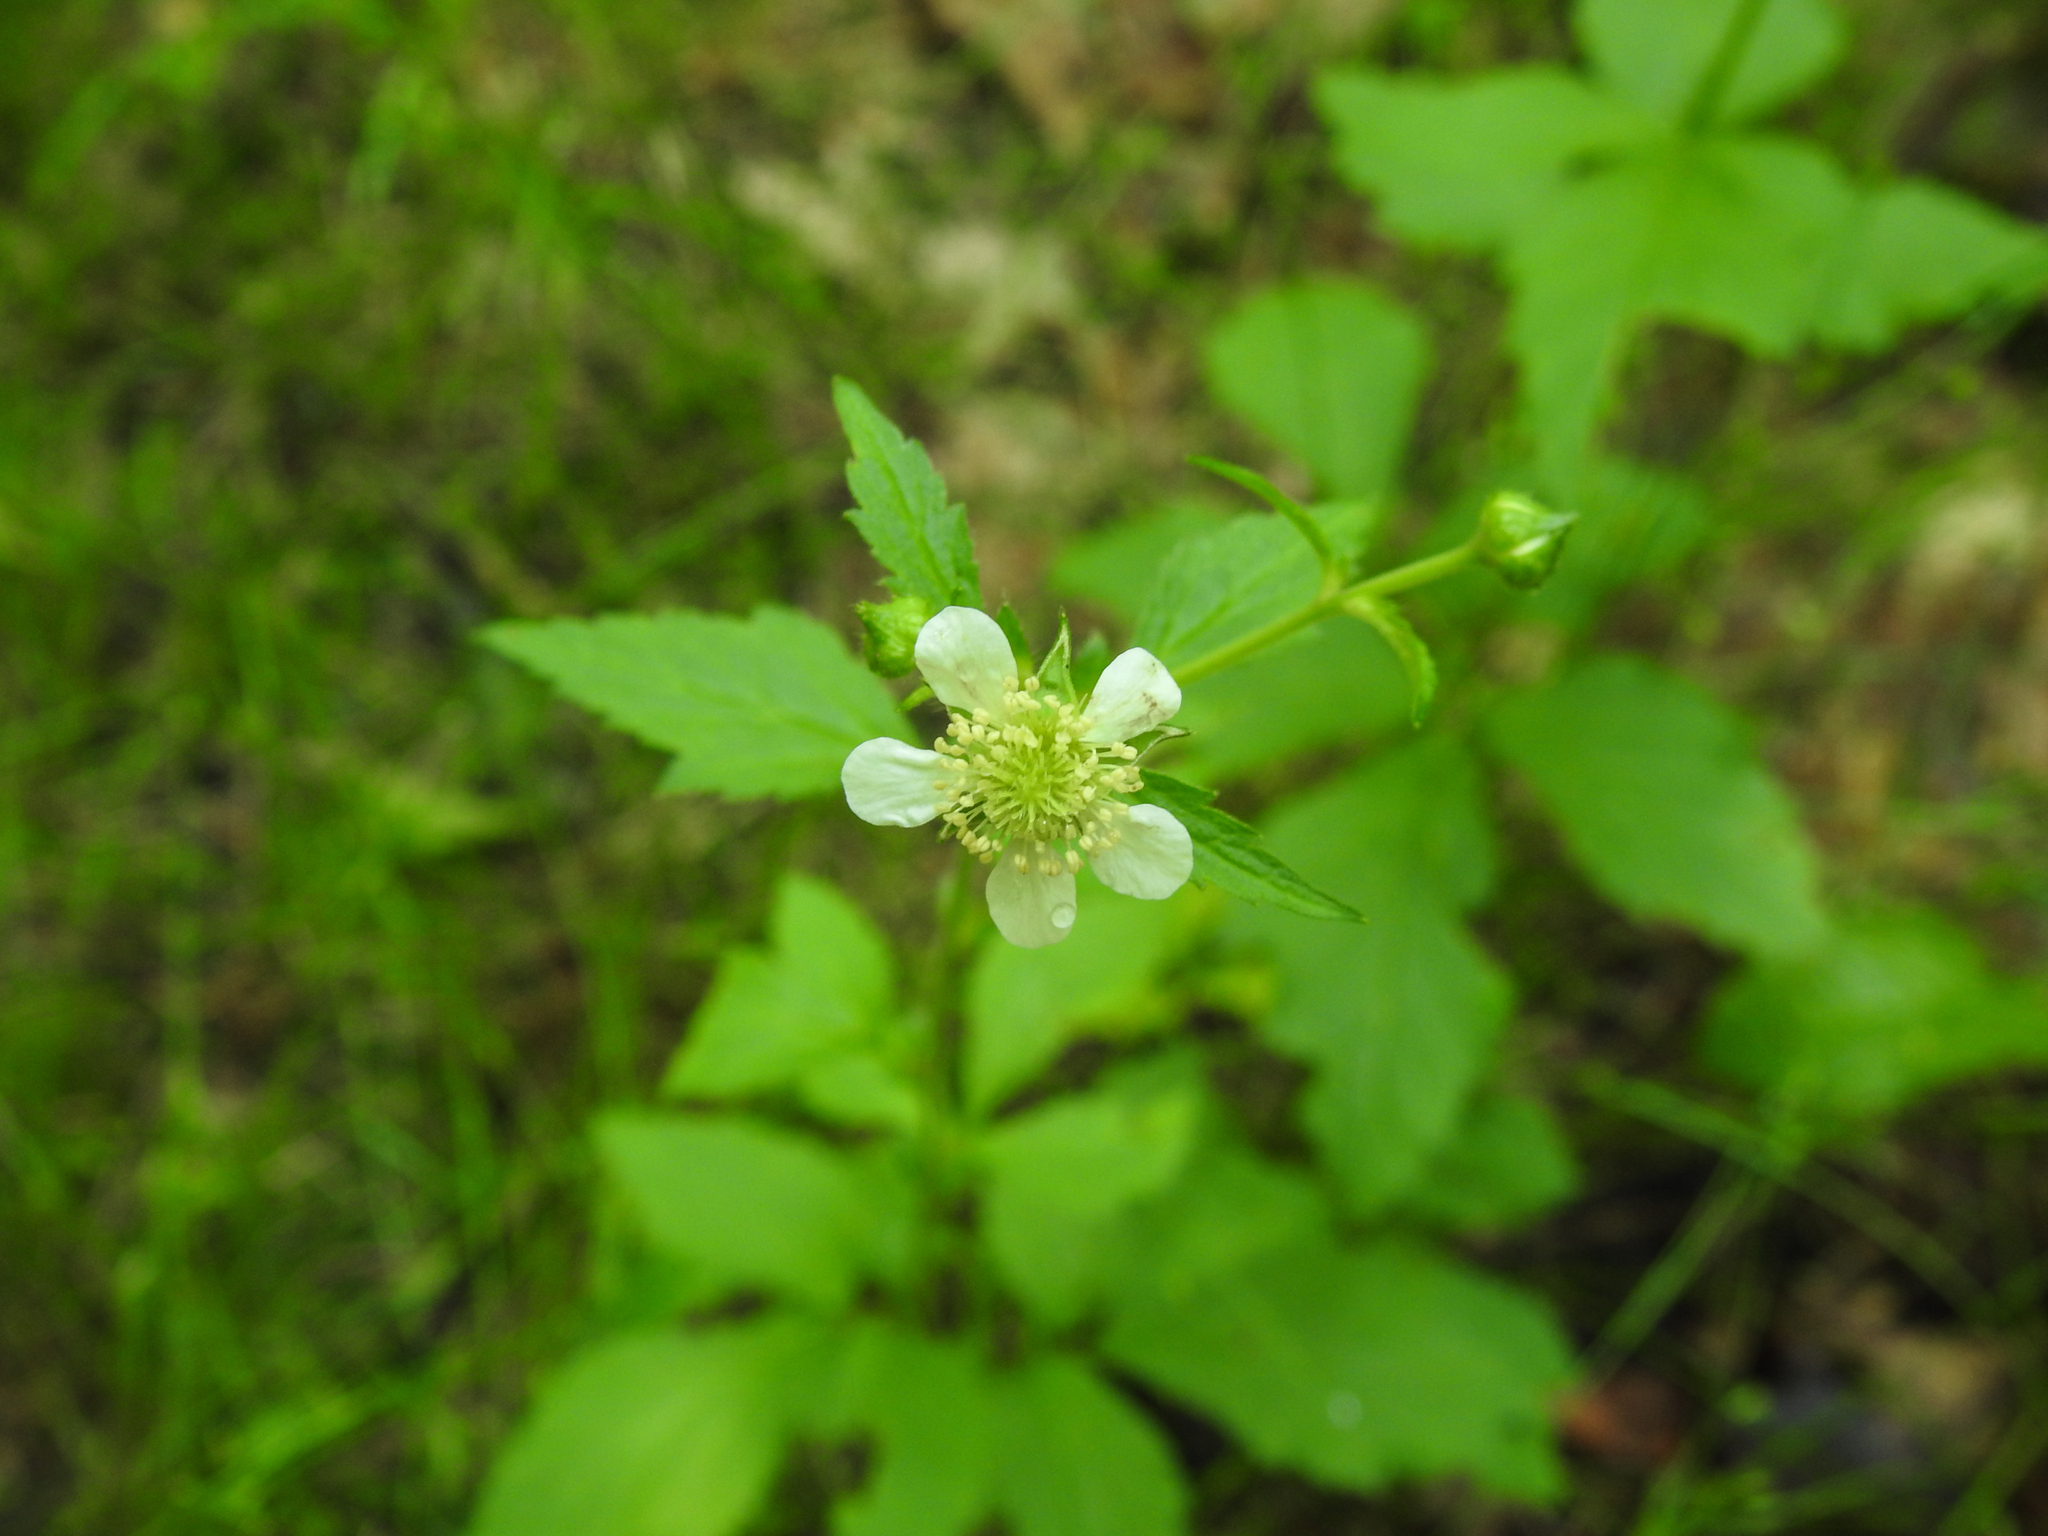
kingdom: Plantae
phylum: Tracheophyta
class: Magnoliopsida
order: Rosales
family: Rosaceae
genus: Geum
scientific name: Geum canadense
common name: White avens
